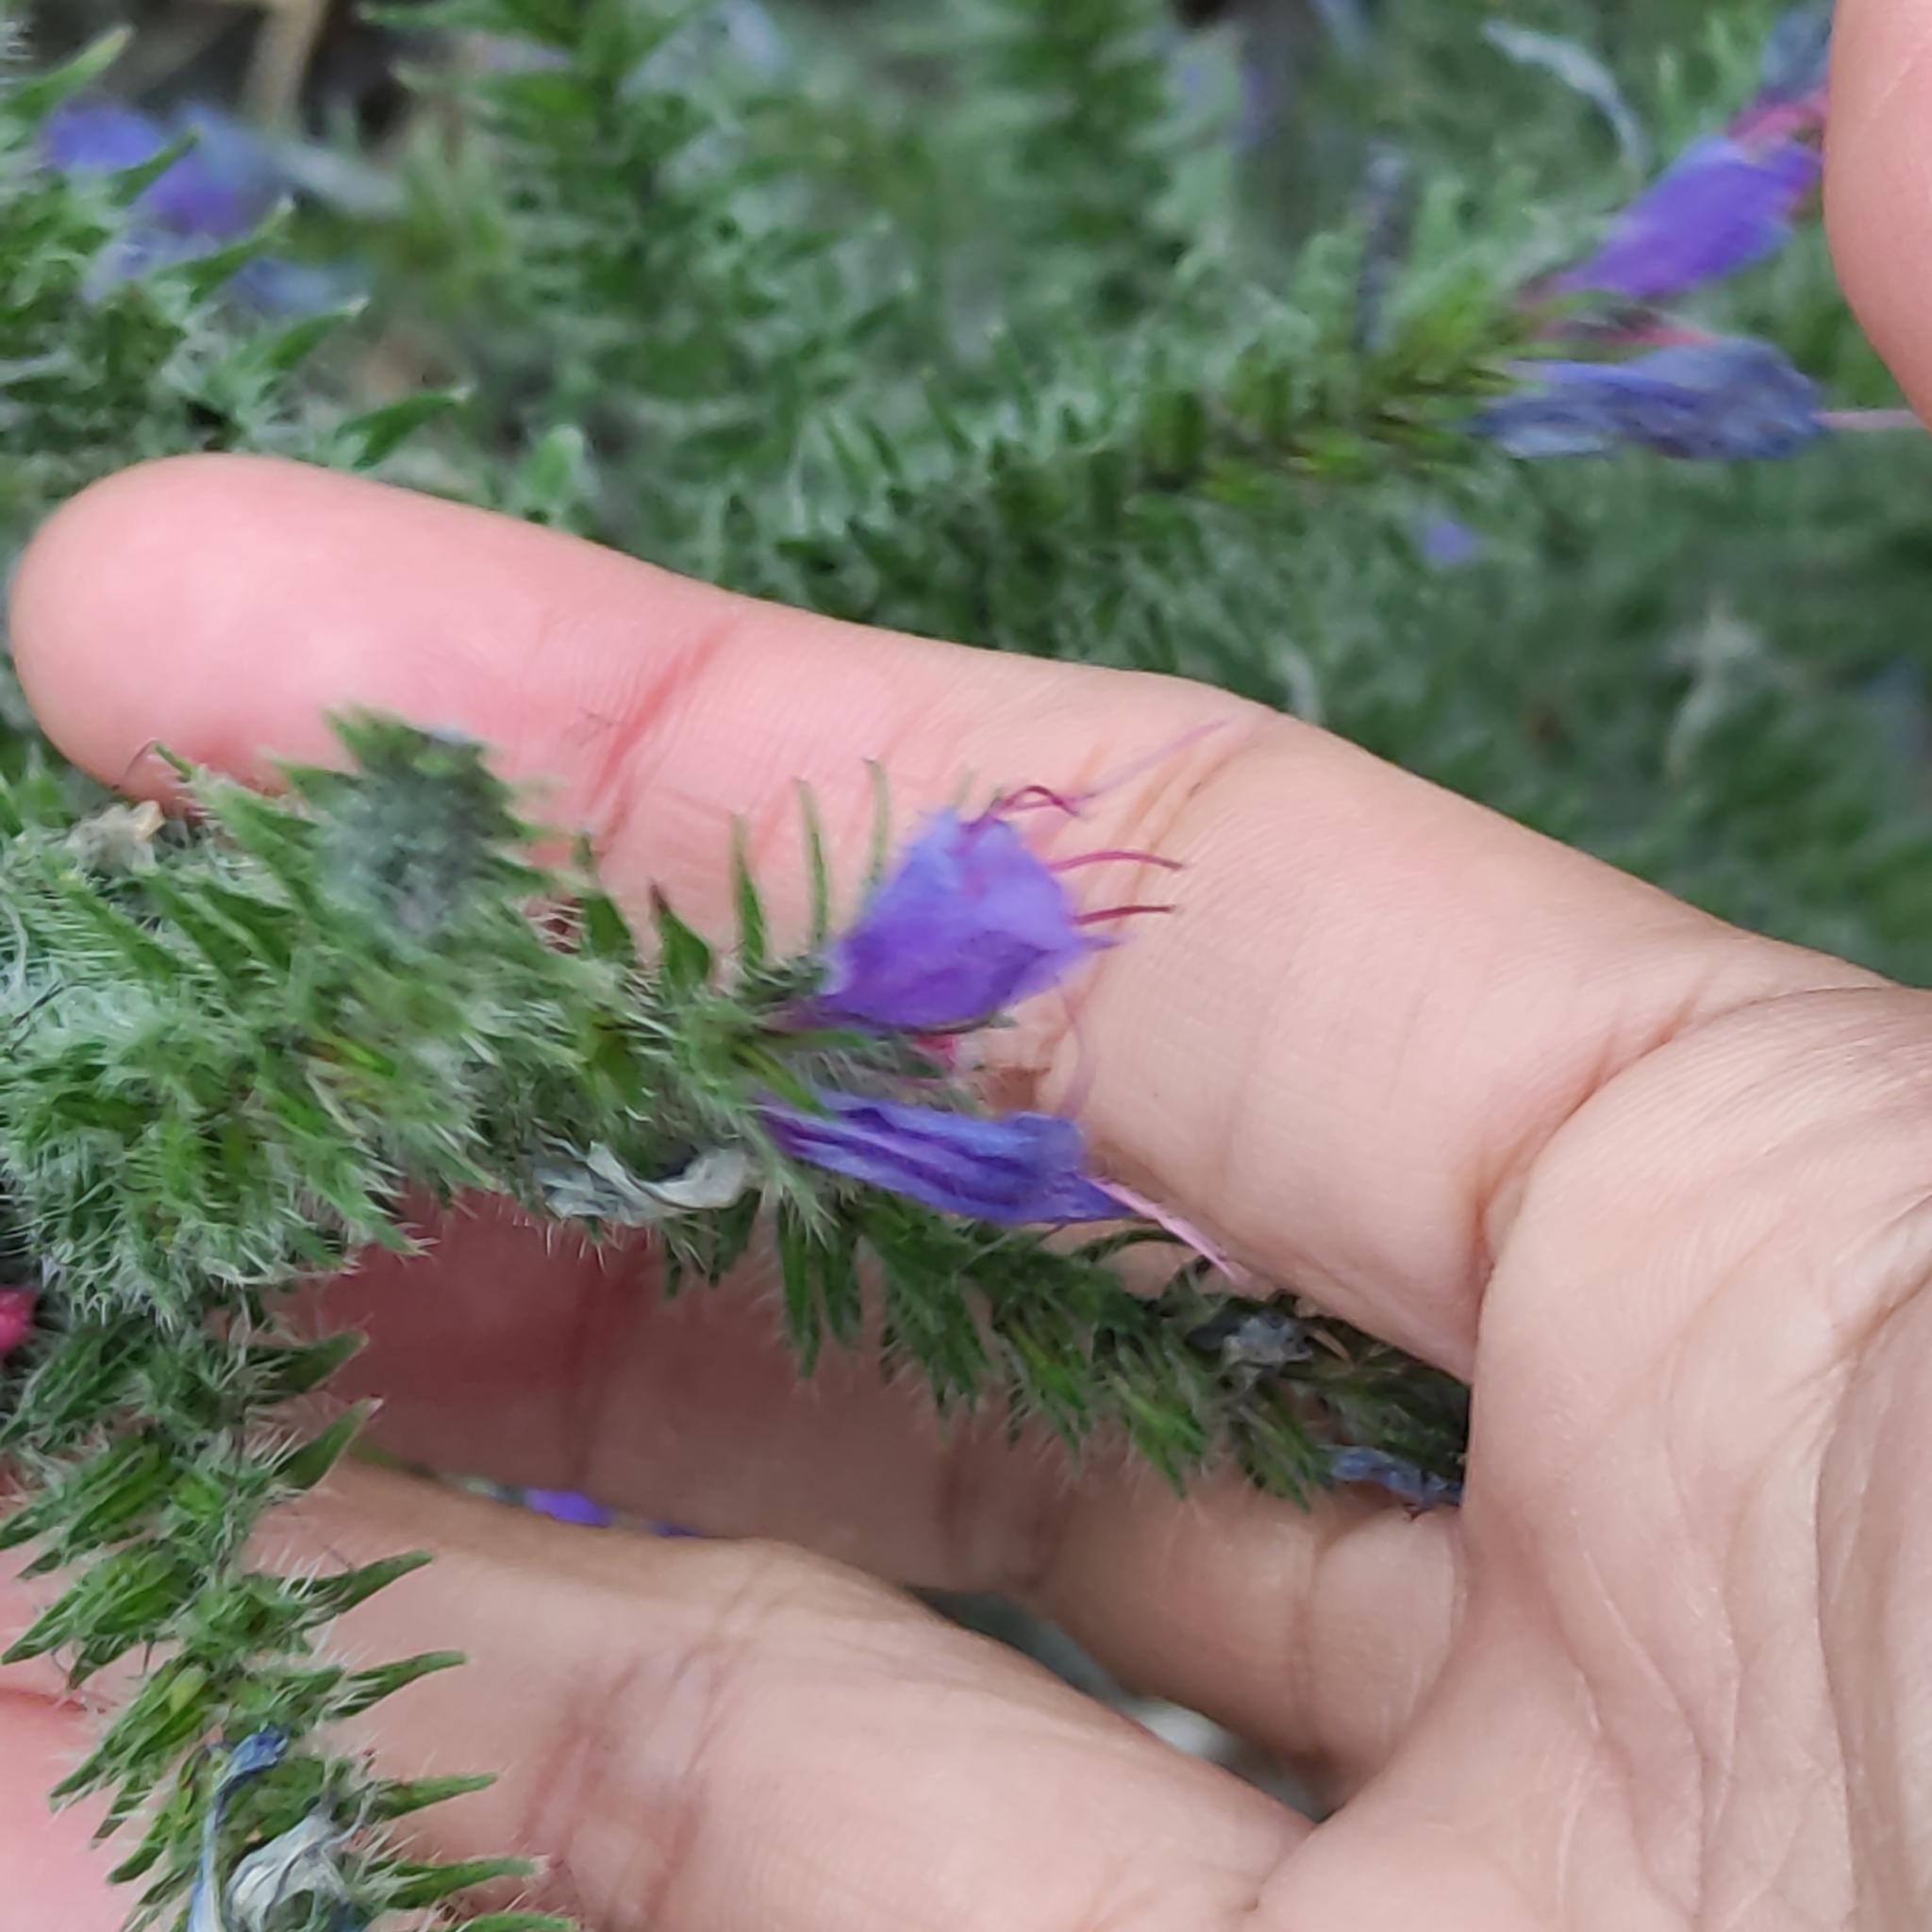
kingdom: Plantae
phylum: Tracheophyta
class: Magnoliopsida
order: Boraginales
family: Boraginaceae
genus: Echium
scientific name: Echium vulgare
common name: Common viper's bugloss
